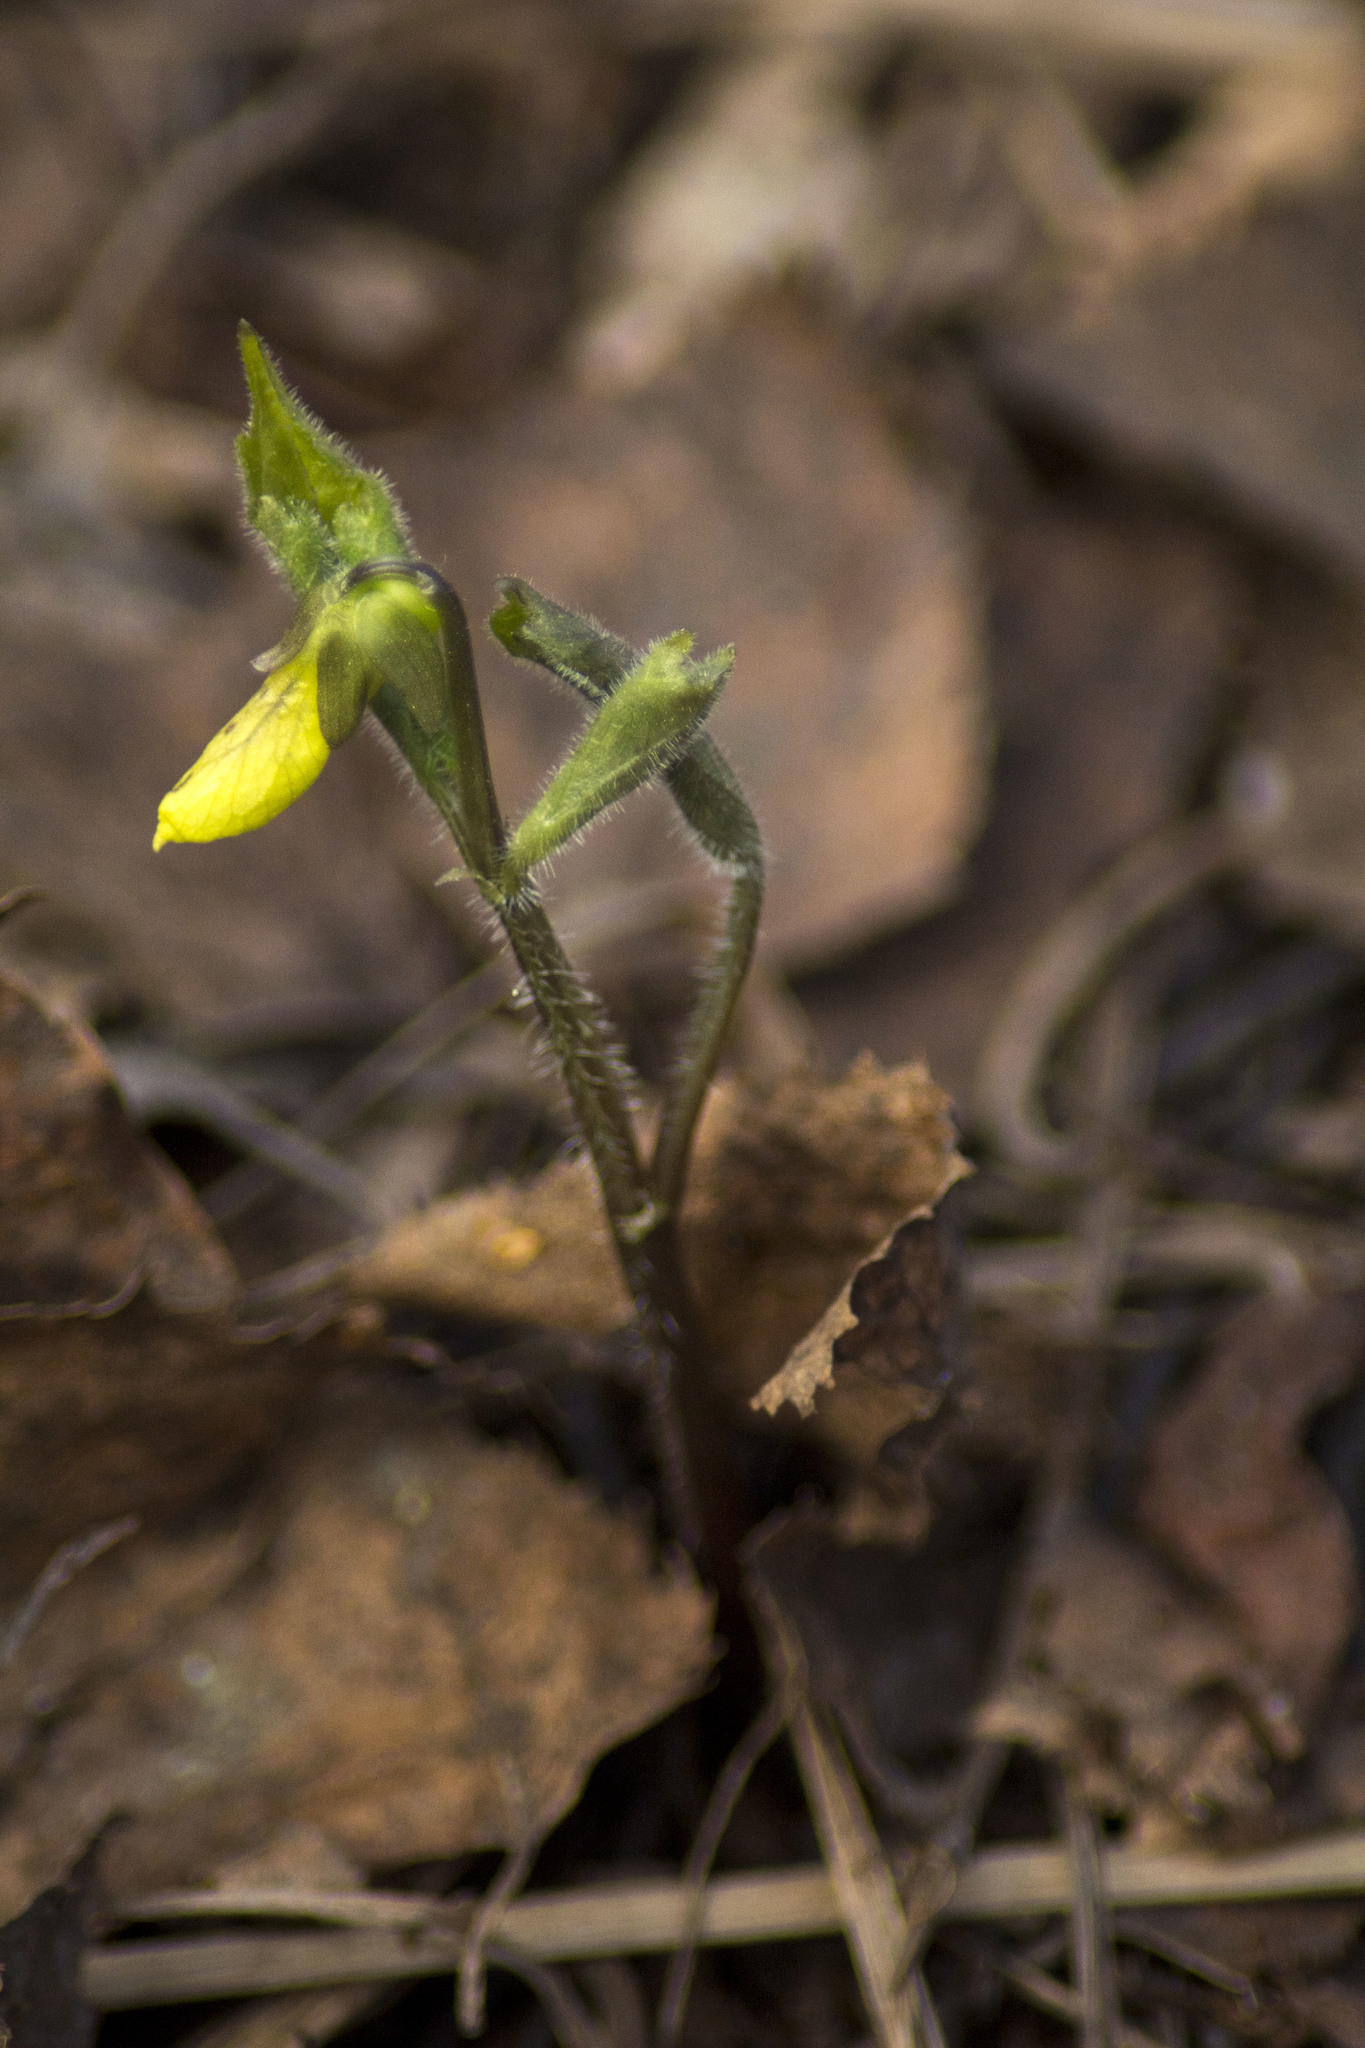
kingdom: Plantae
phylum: Tracheophyta
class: Magnoliopsida
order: Malpighiales
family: Violaceae
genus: Viola
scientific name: Viola uniflora
